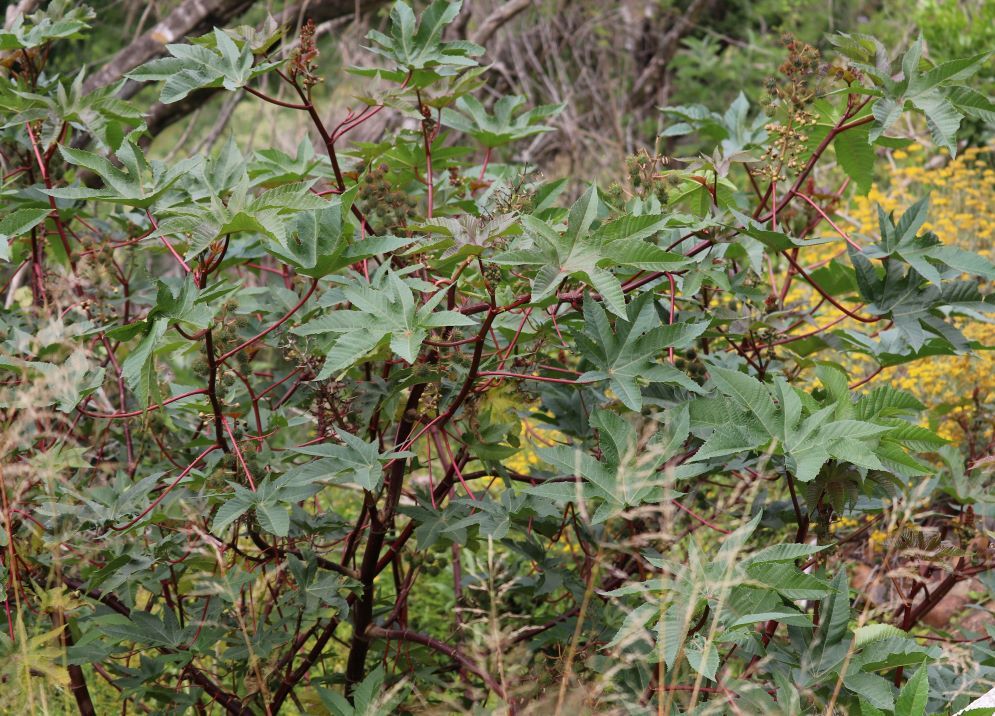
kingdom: Plantae
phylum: Tracheophyta
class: Magnoliopsida
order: Malpighiales
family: Euphorbiaceae
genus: Ricinus
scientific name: Ricinus communis
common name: Castor-oil-plant
